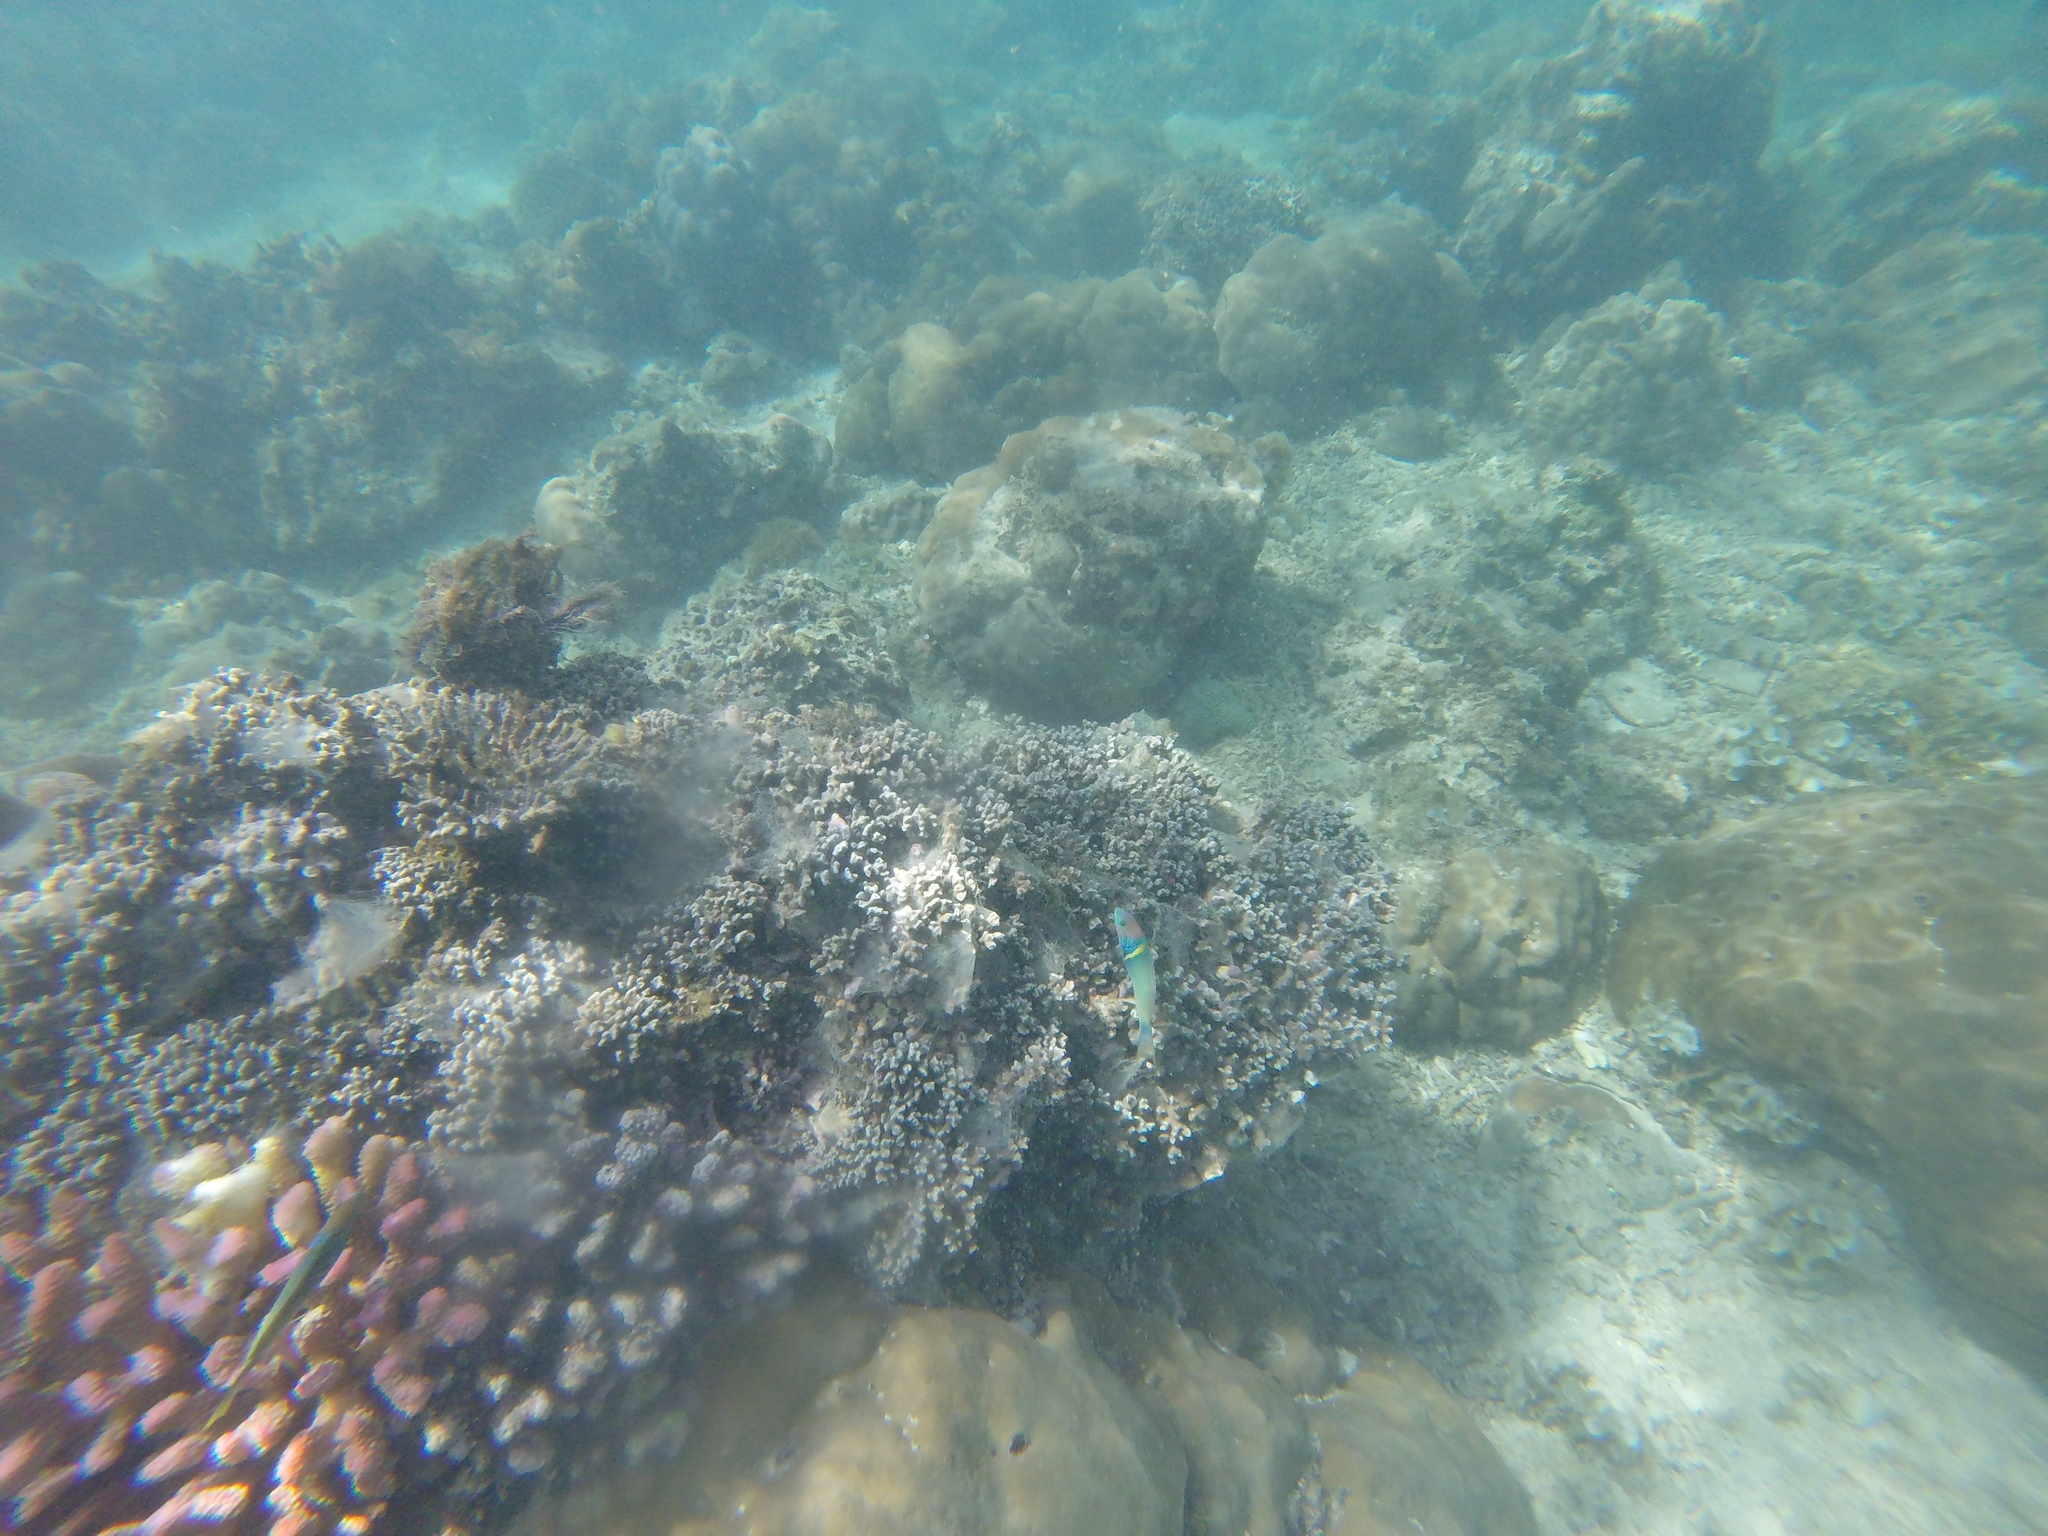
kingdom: Animalia
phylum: Chordata
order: Perciformes
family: Labridae
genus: Thalassoma
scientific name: Thalassoma hebraicum
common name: Goldbar wrasse
